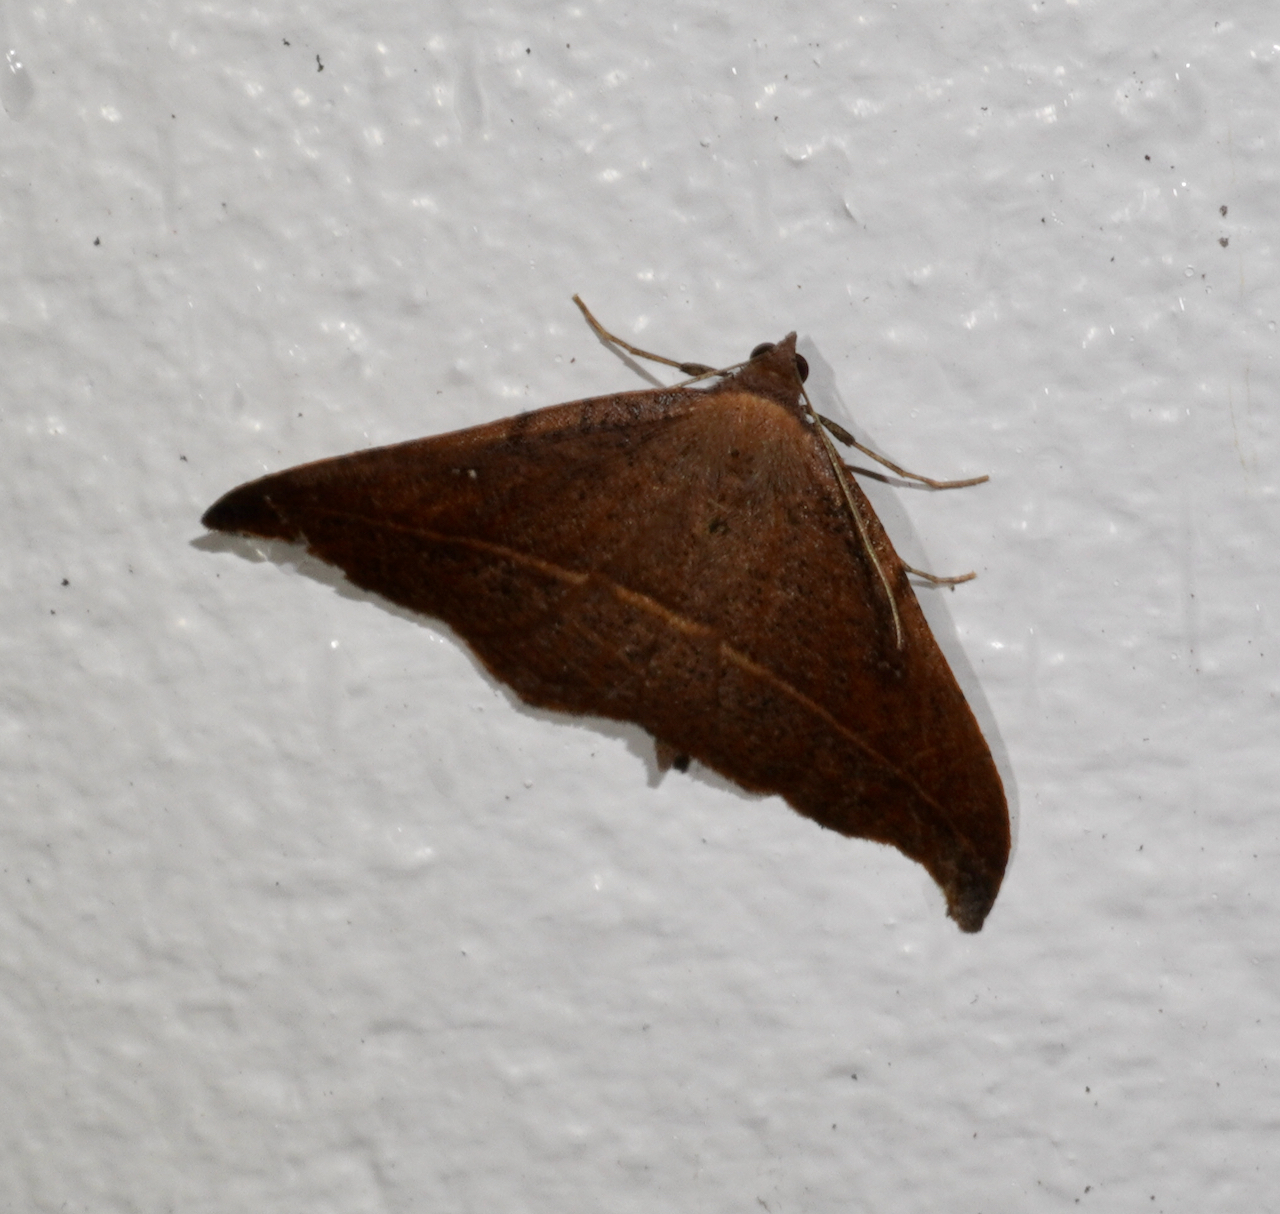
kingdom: Animalia
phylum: Arthropoda
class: Insecta
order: Lepidoptera
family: Geometridae
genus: Sarisa
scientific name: Sarisa muriferata
